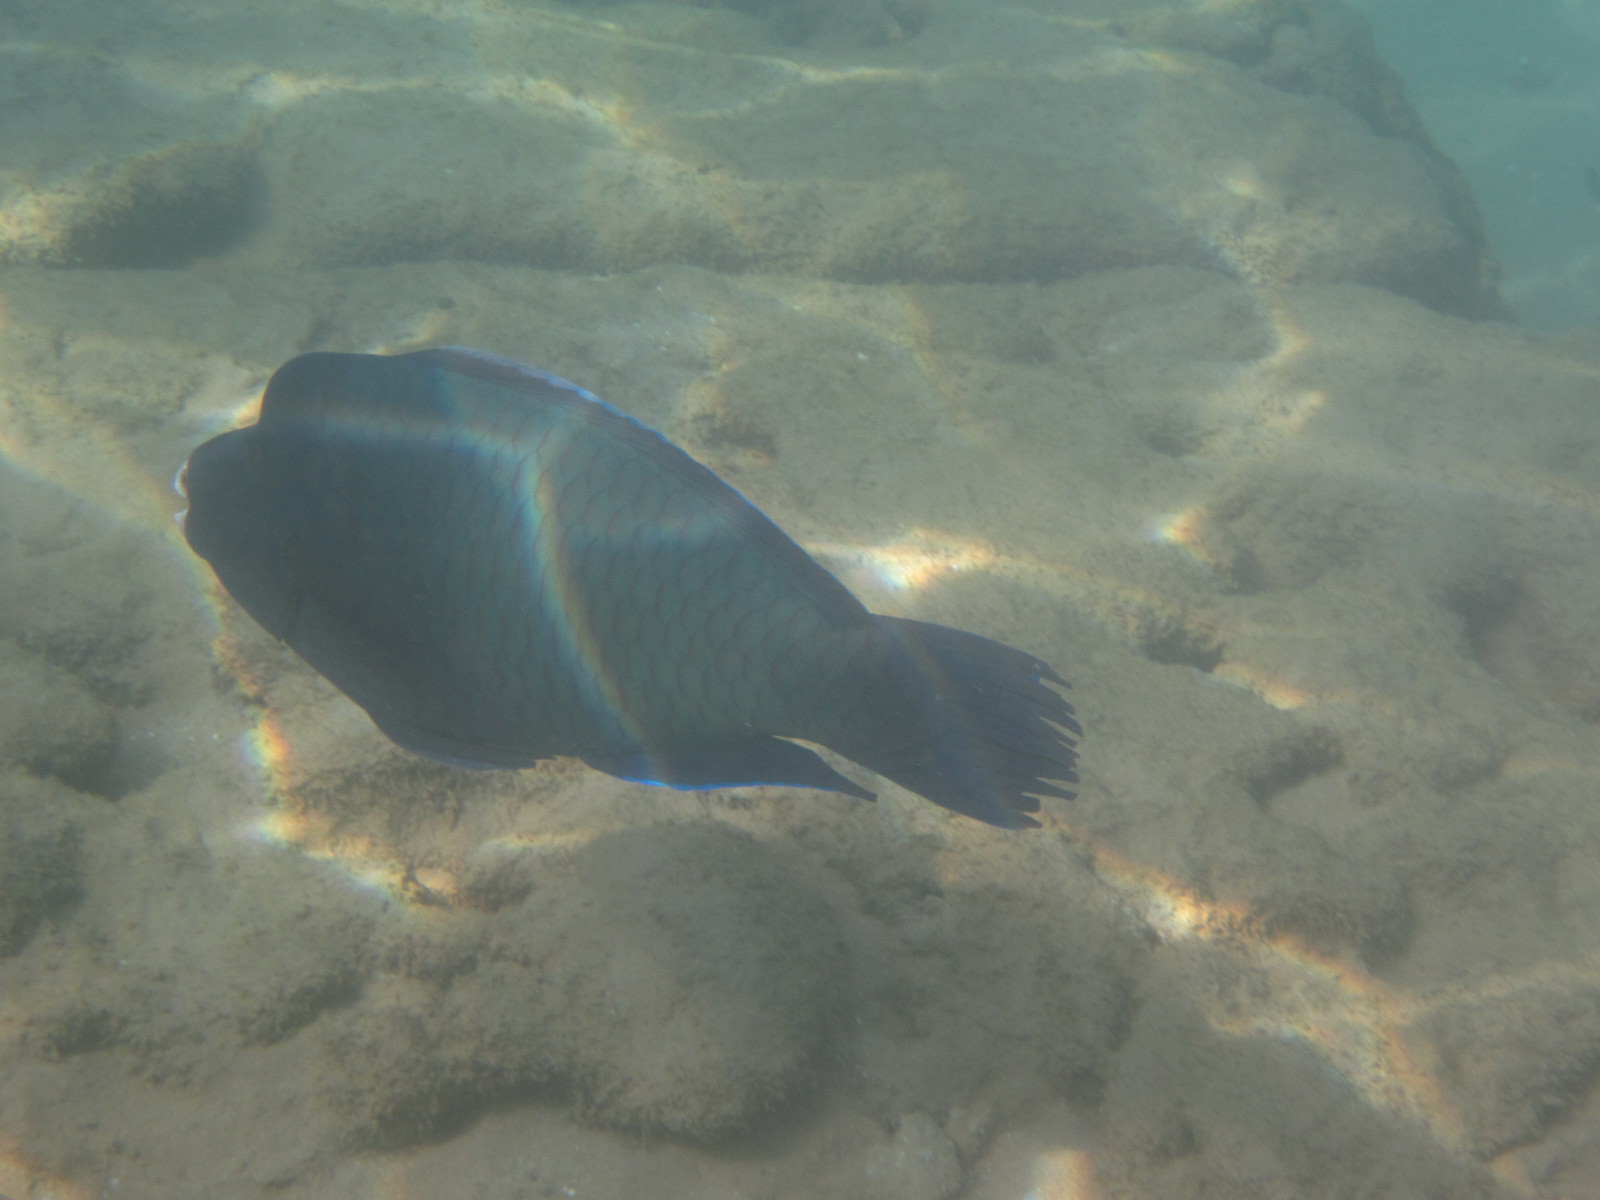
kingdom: Animalia
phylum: Chordata
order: Perciformes
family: Scaridae
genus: Chlorurus
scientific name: Chlorurus rhakoura
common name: Raggedfin parrotfish
